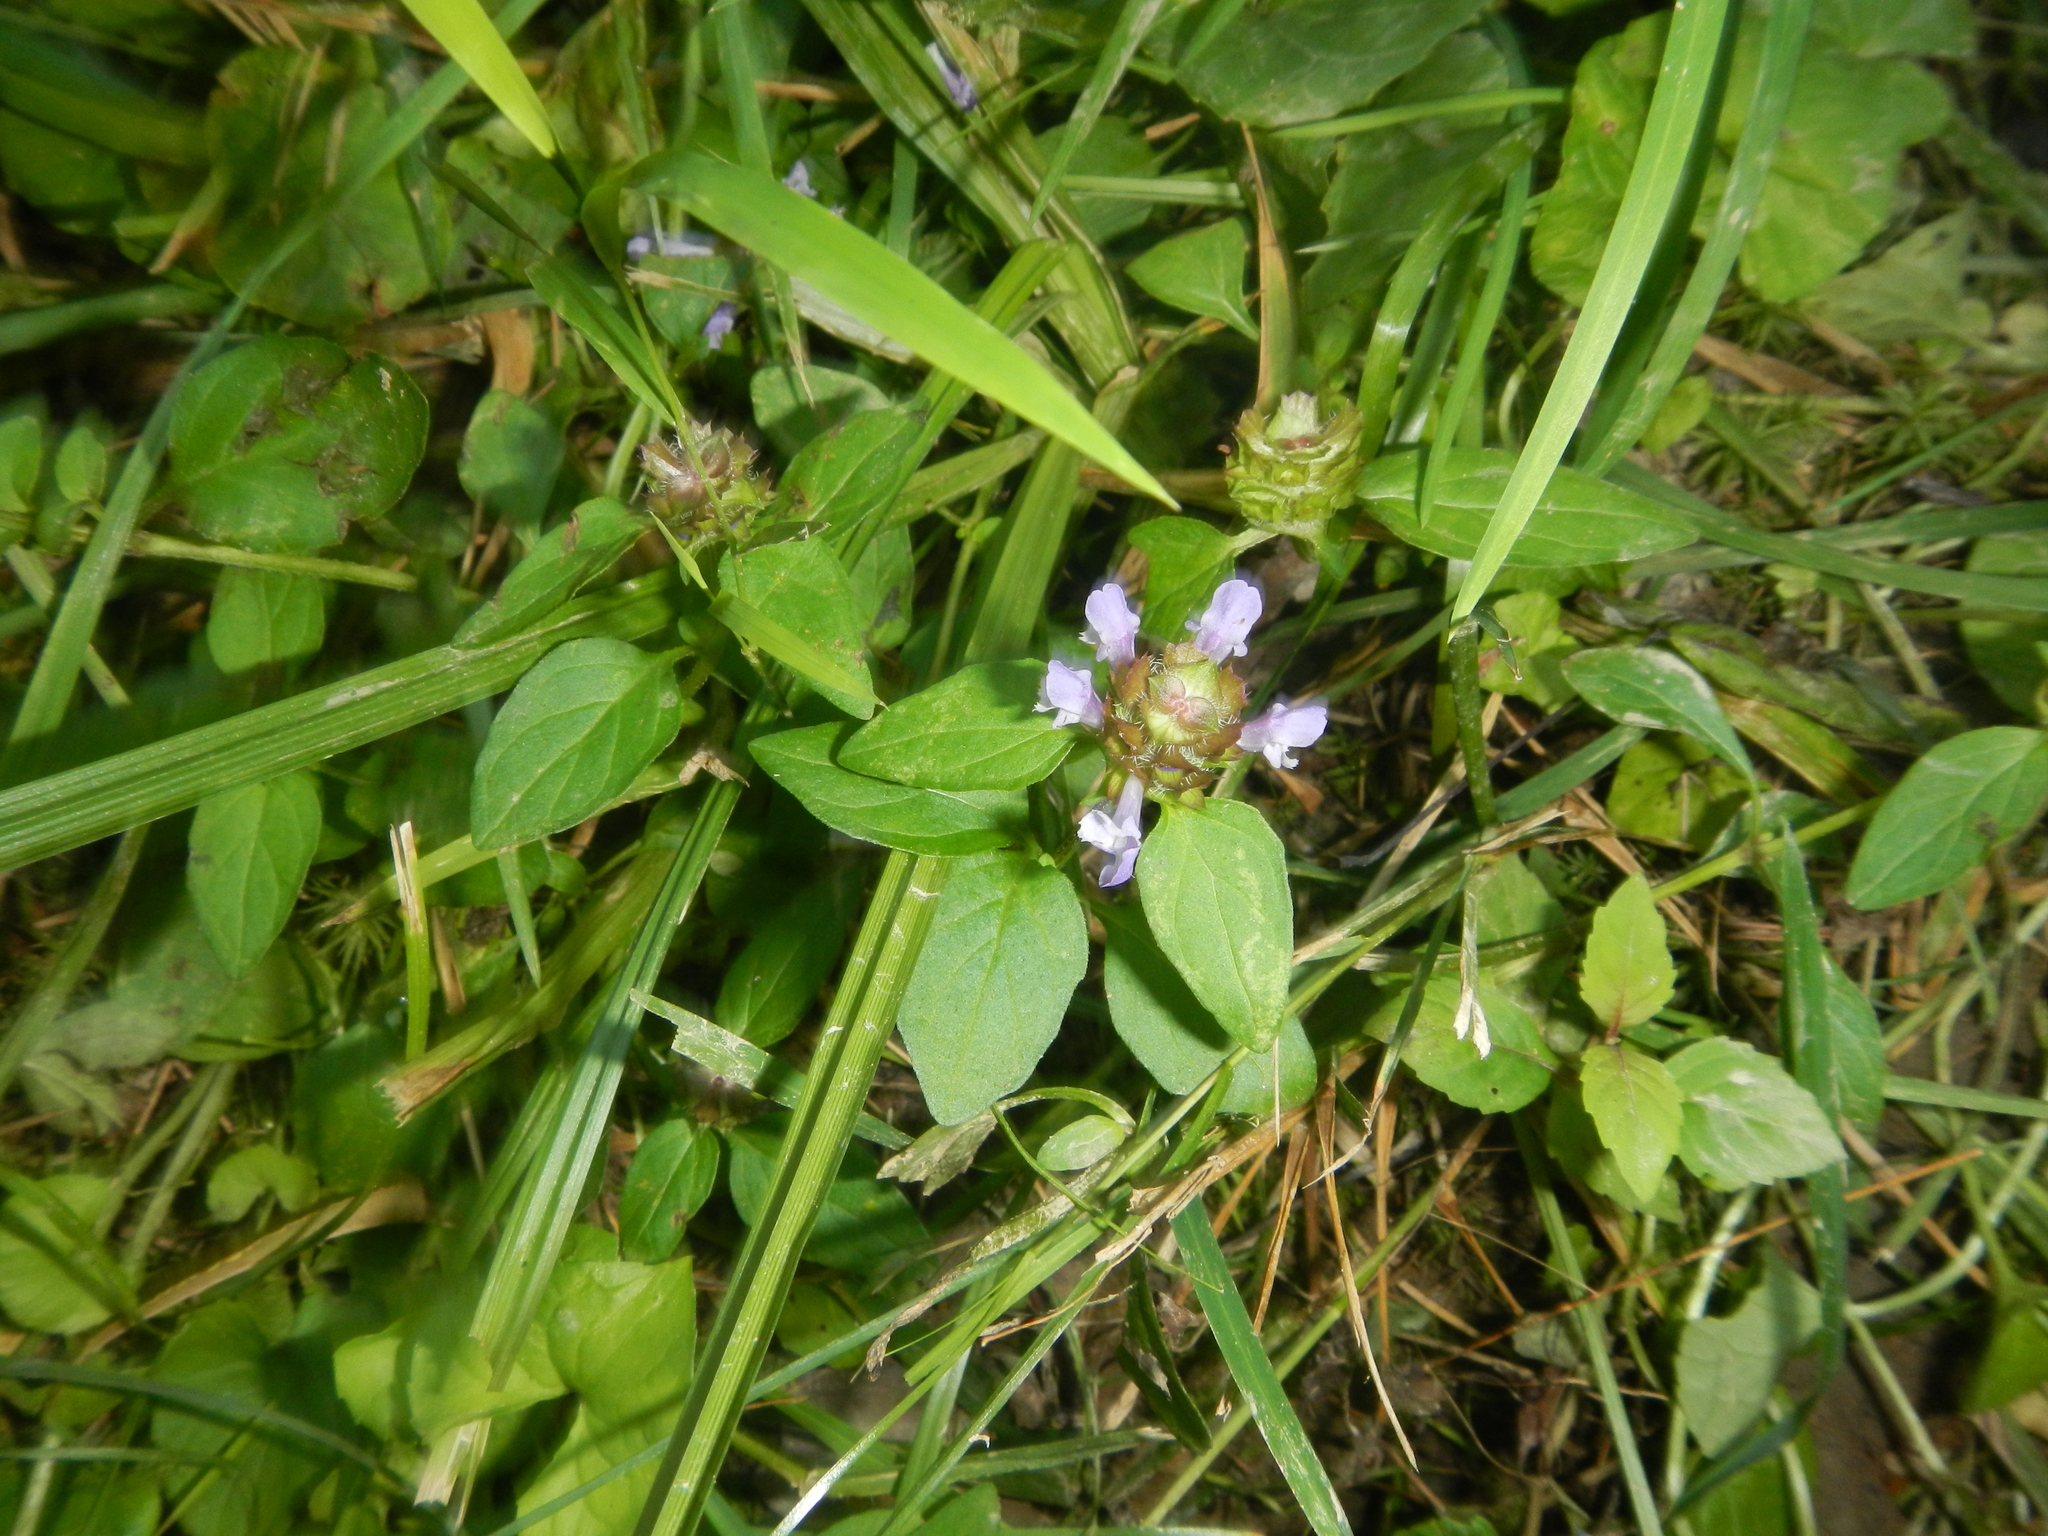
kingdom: Plantae
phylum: Tracheophyta
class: Magnoliopsida
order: Lamiales
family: Lamiaceae
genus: Prunella
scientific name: Prunella vulgaris
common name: Heal-all
